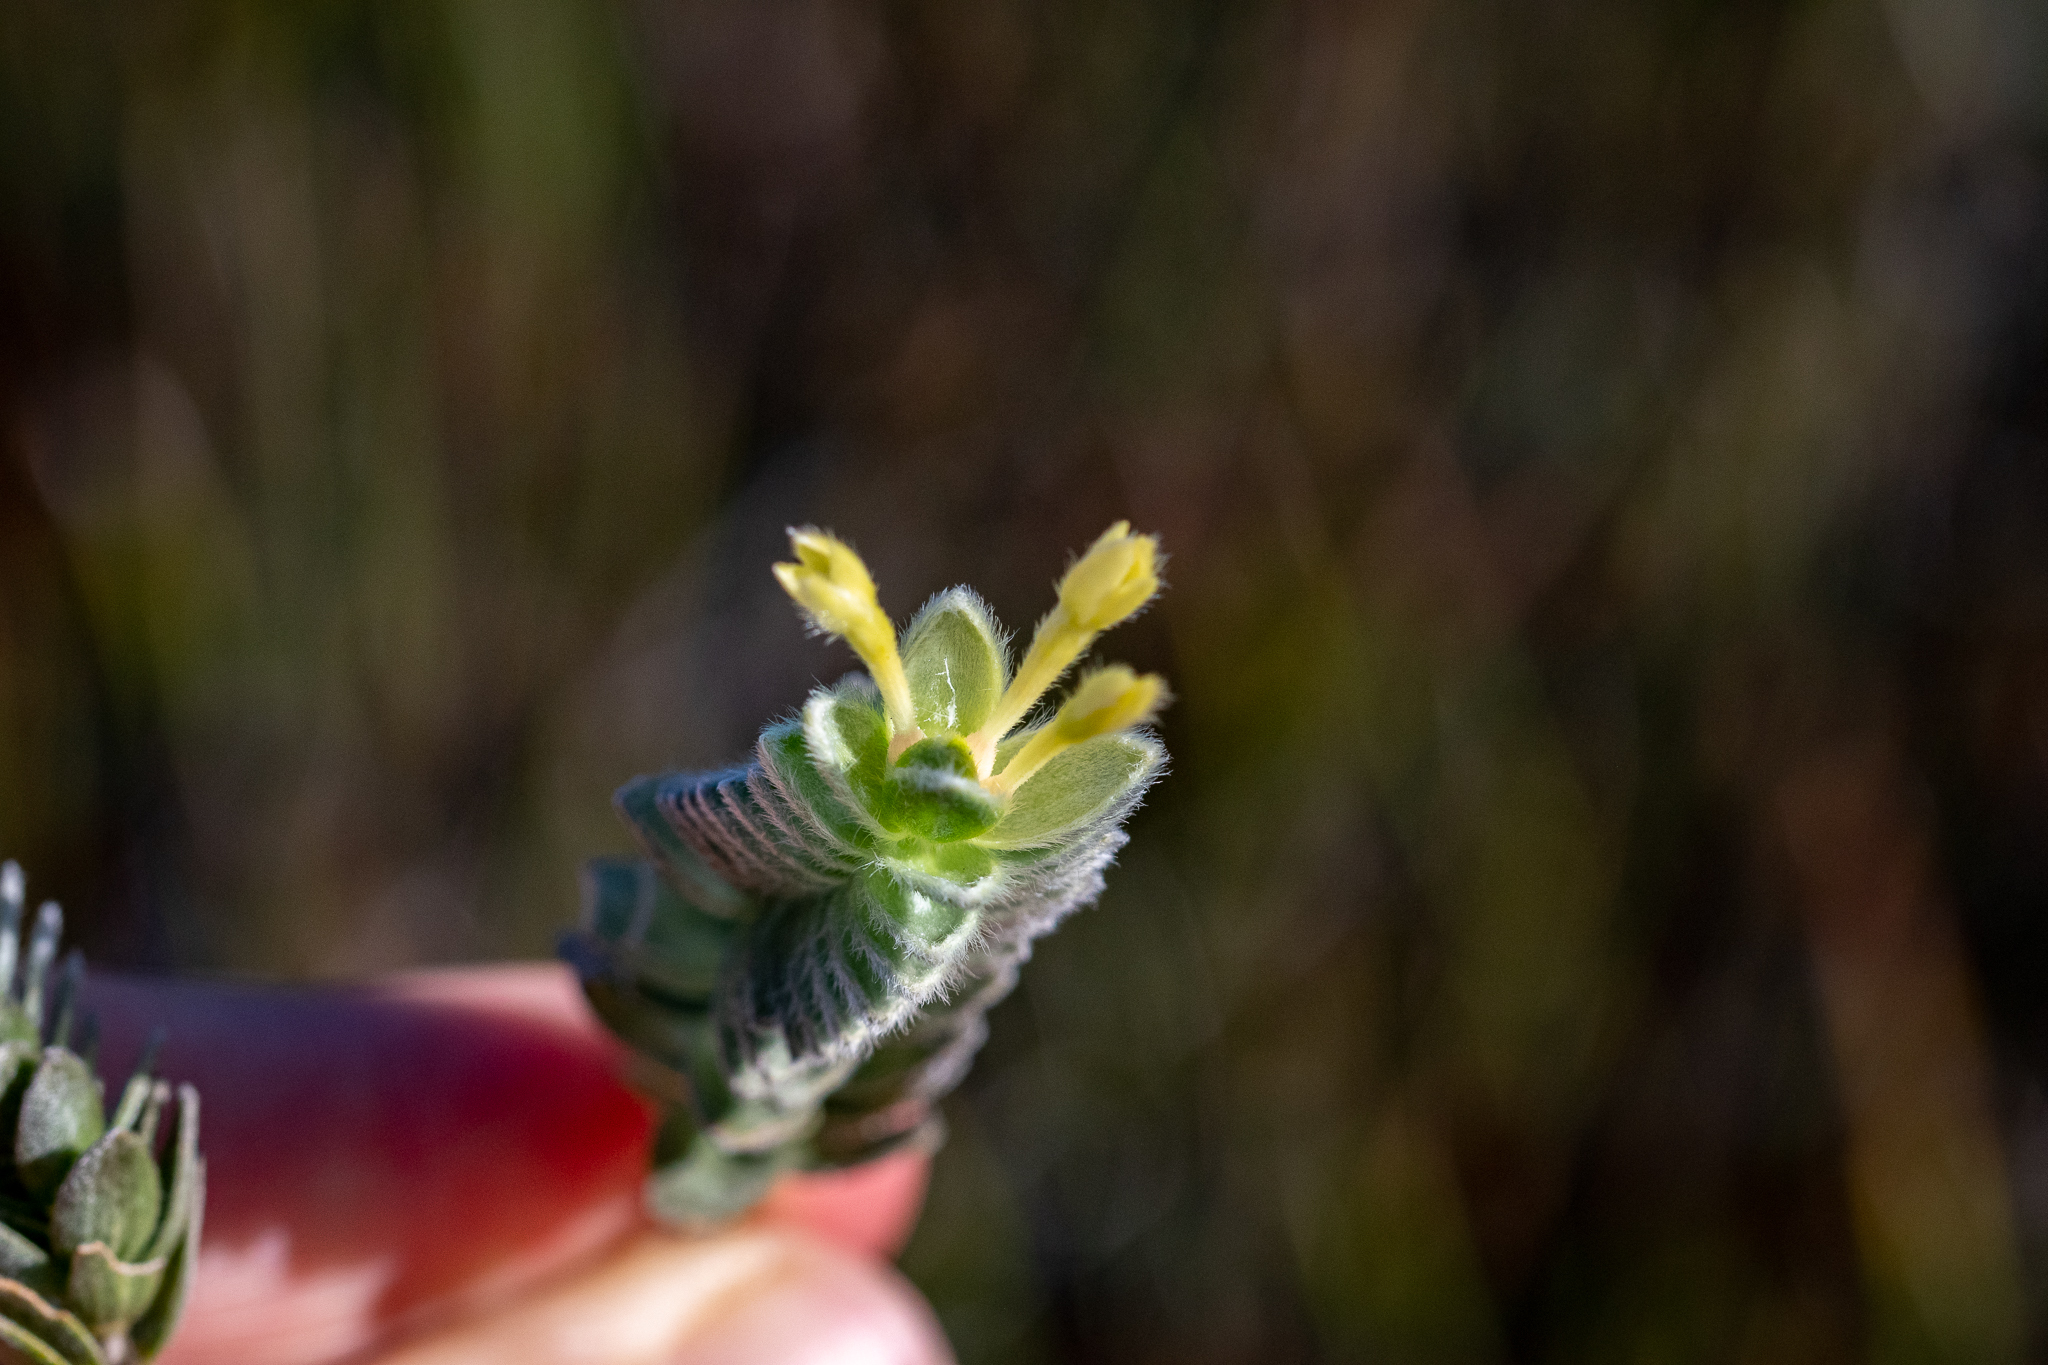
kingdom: Plantae
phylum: Tracheophyta
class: Magnoliopsida
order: Malvales
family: Thymelaeaceae
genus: Gnidia
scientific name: Gnidia anomala
